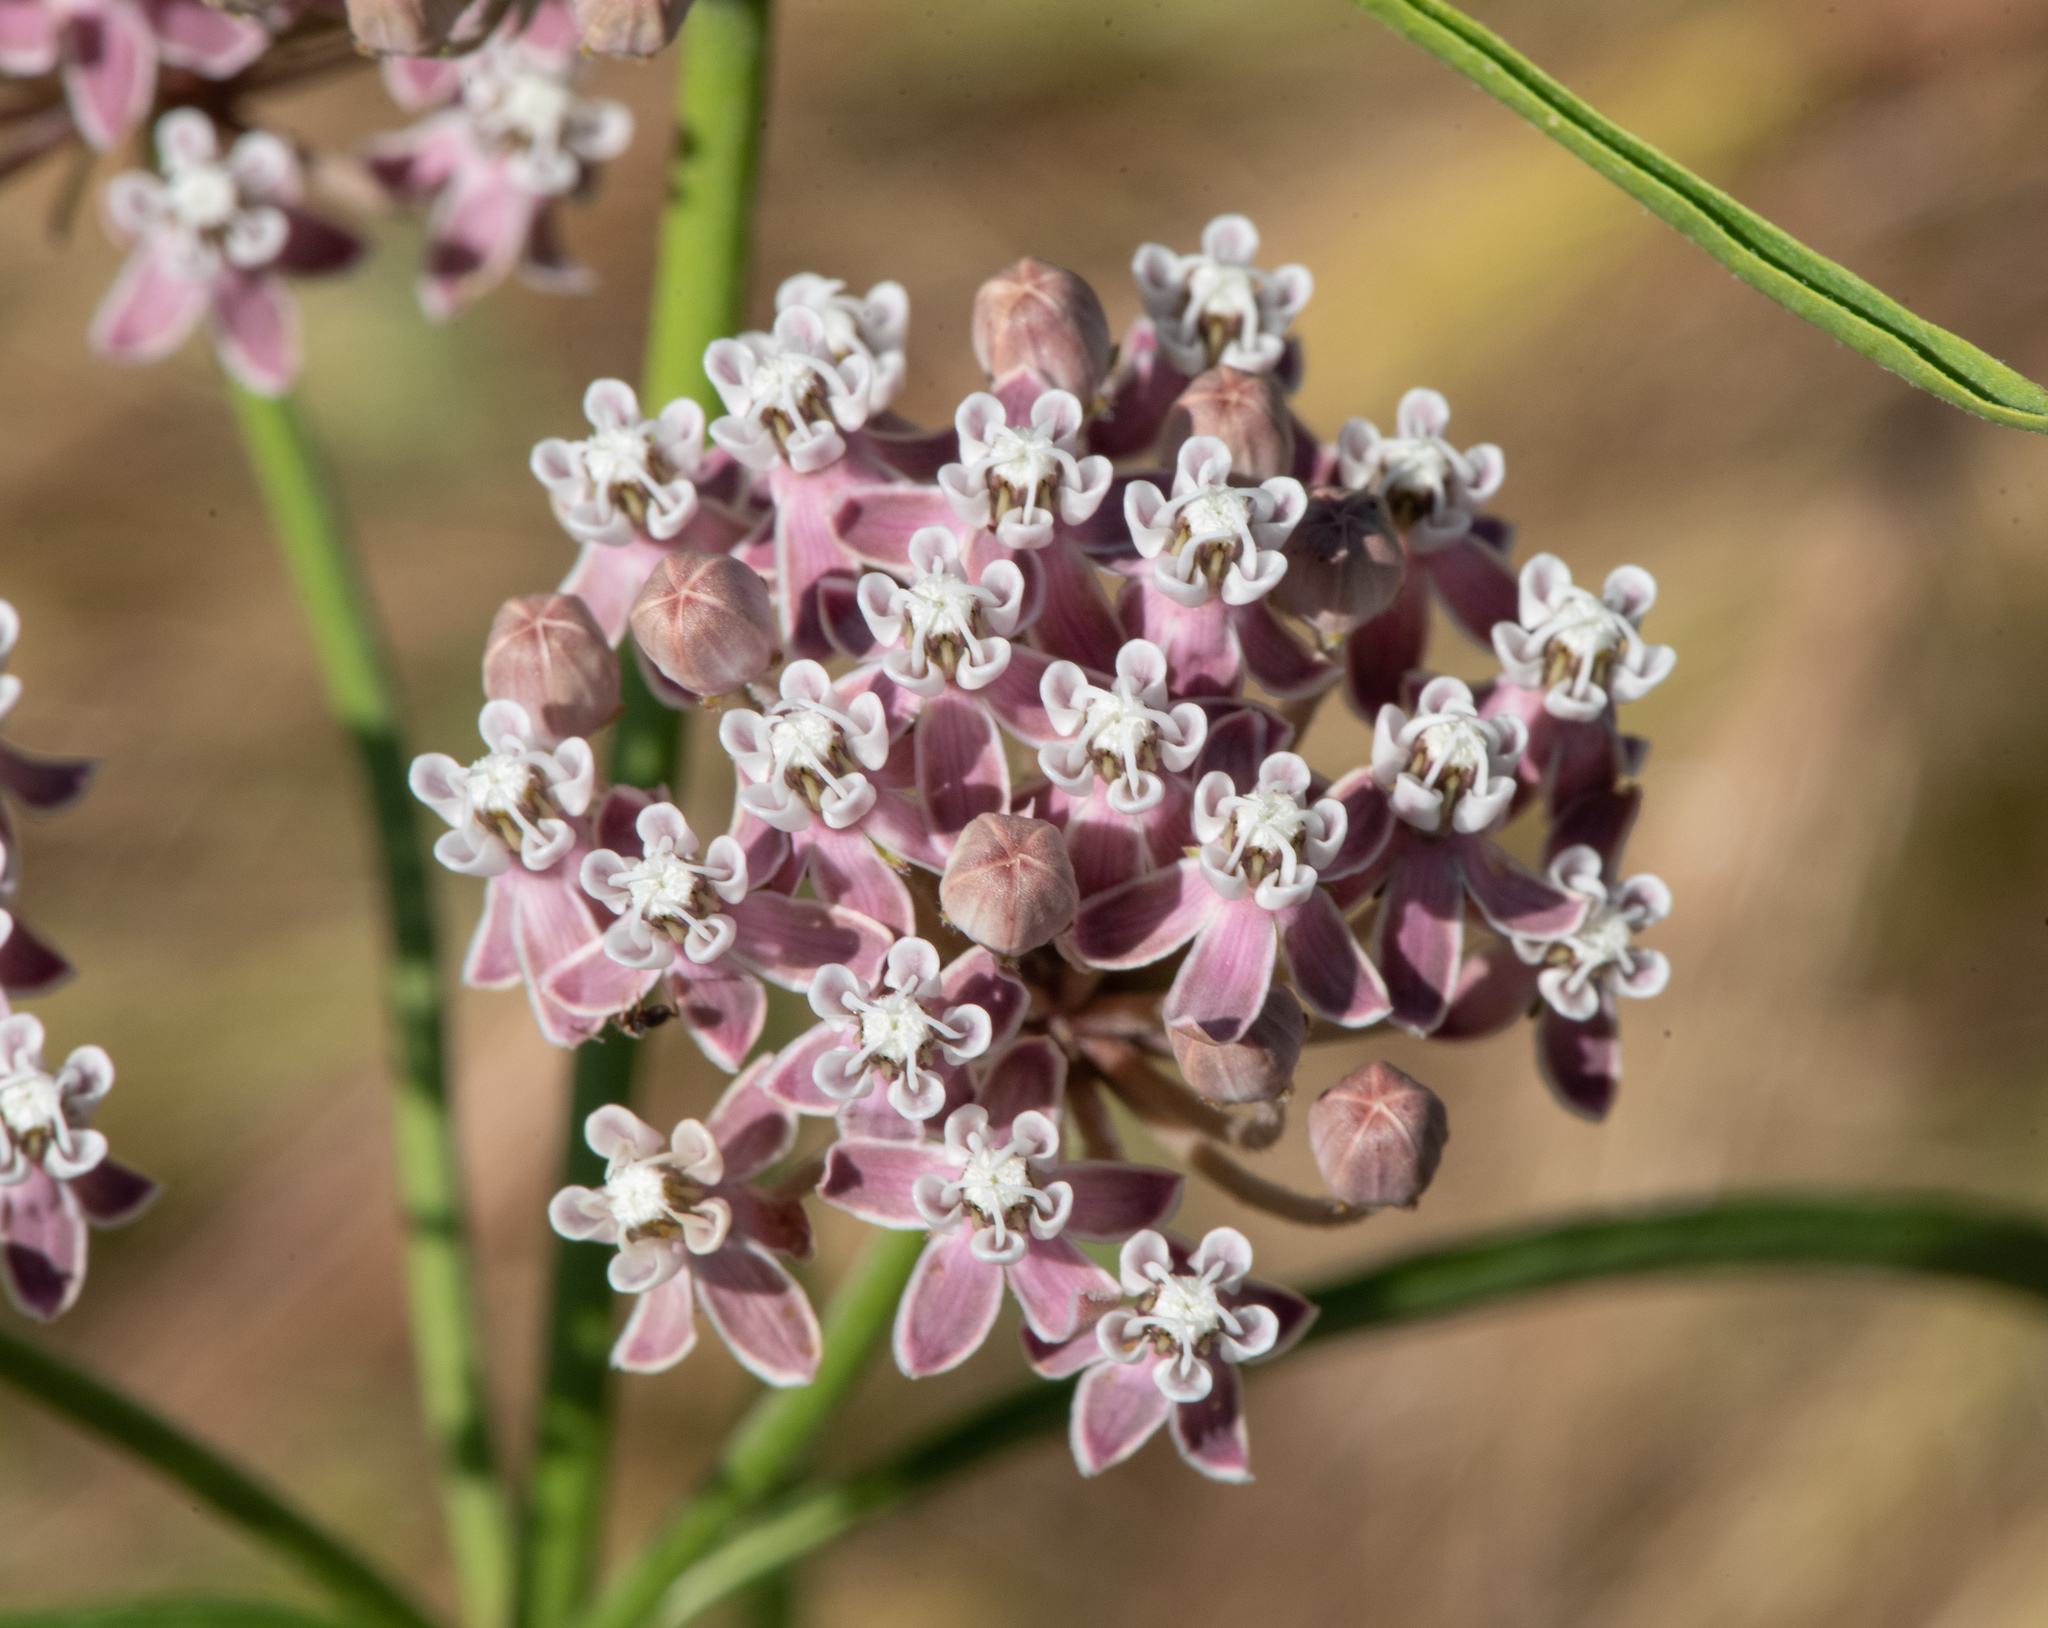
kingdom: Plantae
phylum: Tracheophyta
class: Magnoliopsida
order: Gentianales
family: Apocynaceae
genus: Asclepias
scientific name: Asclepias fascicularis
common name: Mexican milkweed
